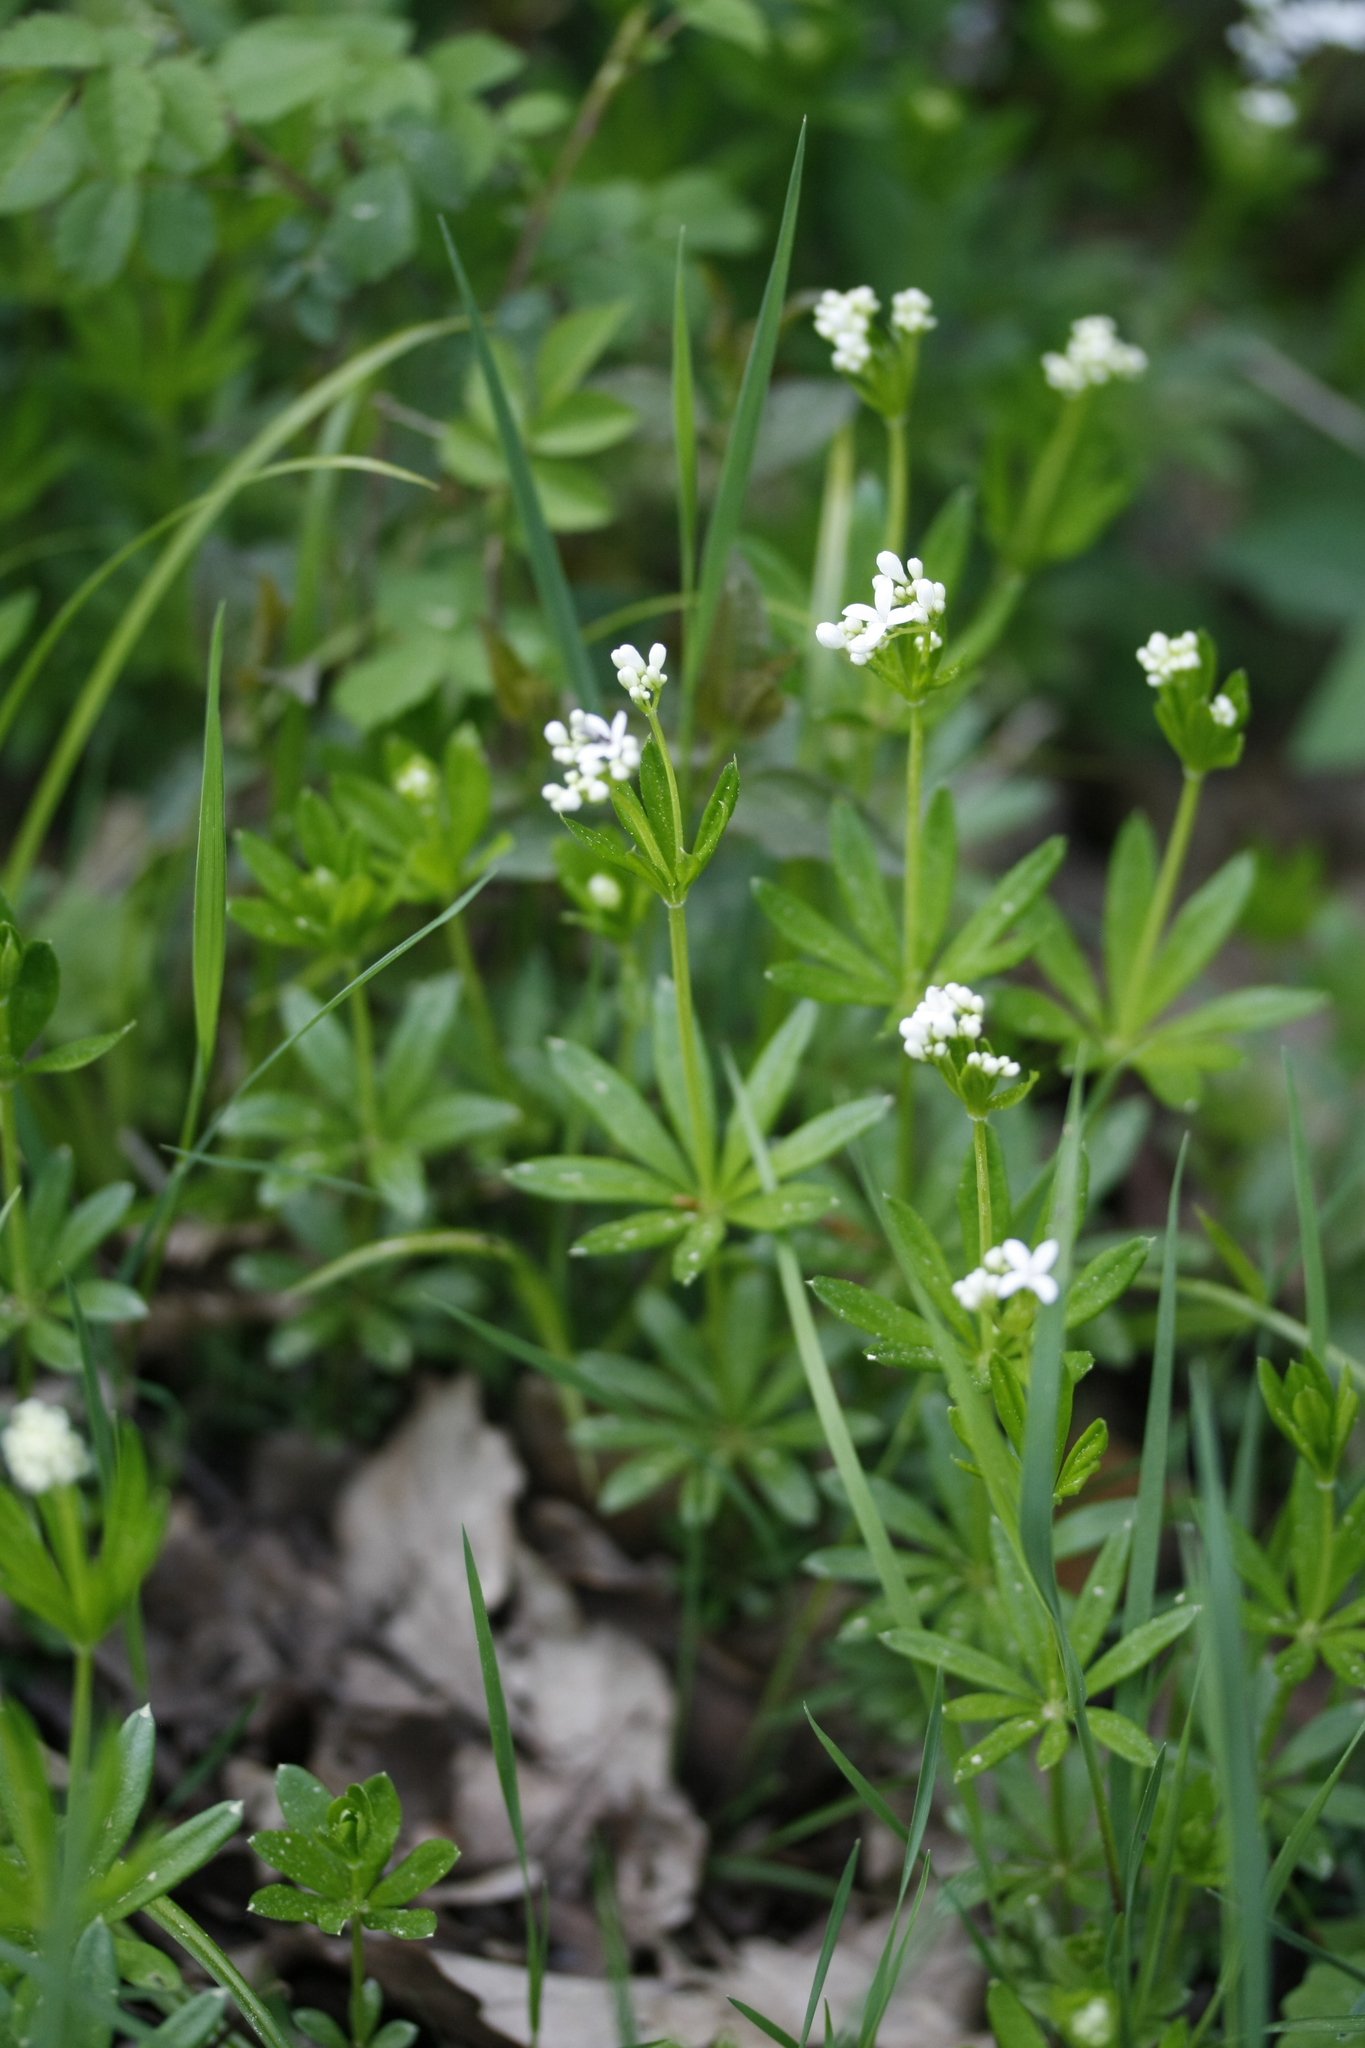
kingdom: Plantae
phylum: Tracheophyta
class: Magnoliopsida
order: Gentianales
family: Rubiaceae
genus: Galium
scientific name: Galium odoratum
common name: Sweet woodruff
